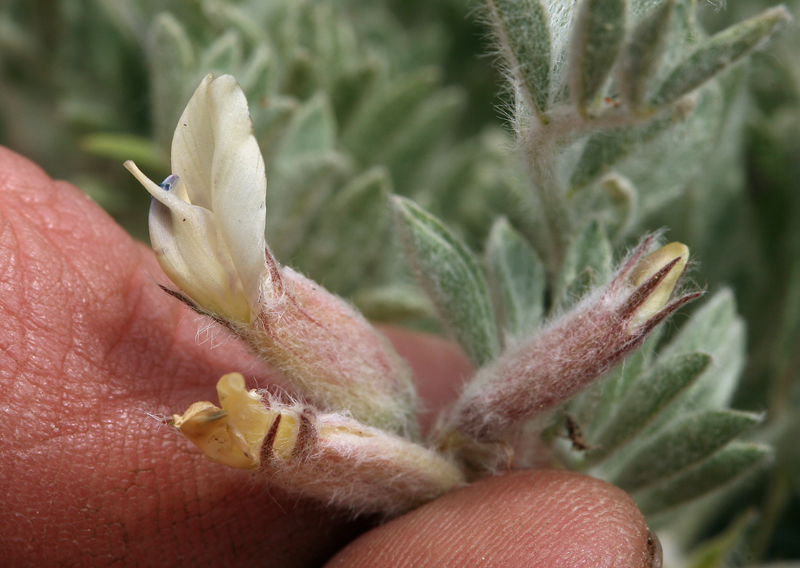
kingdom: Plantae
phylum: Tracheophyta
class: Magnoliopsida
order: Fabales
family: Fabaceae
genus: Astragalus
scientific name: Astragalus purshii
